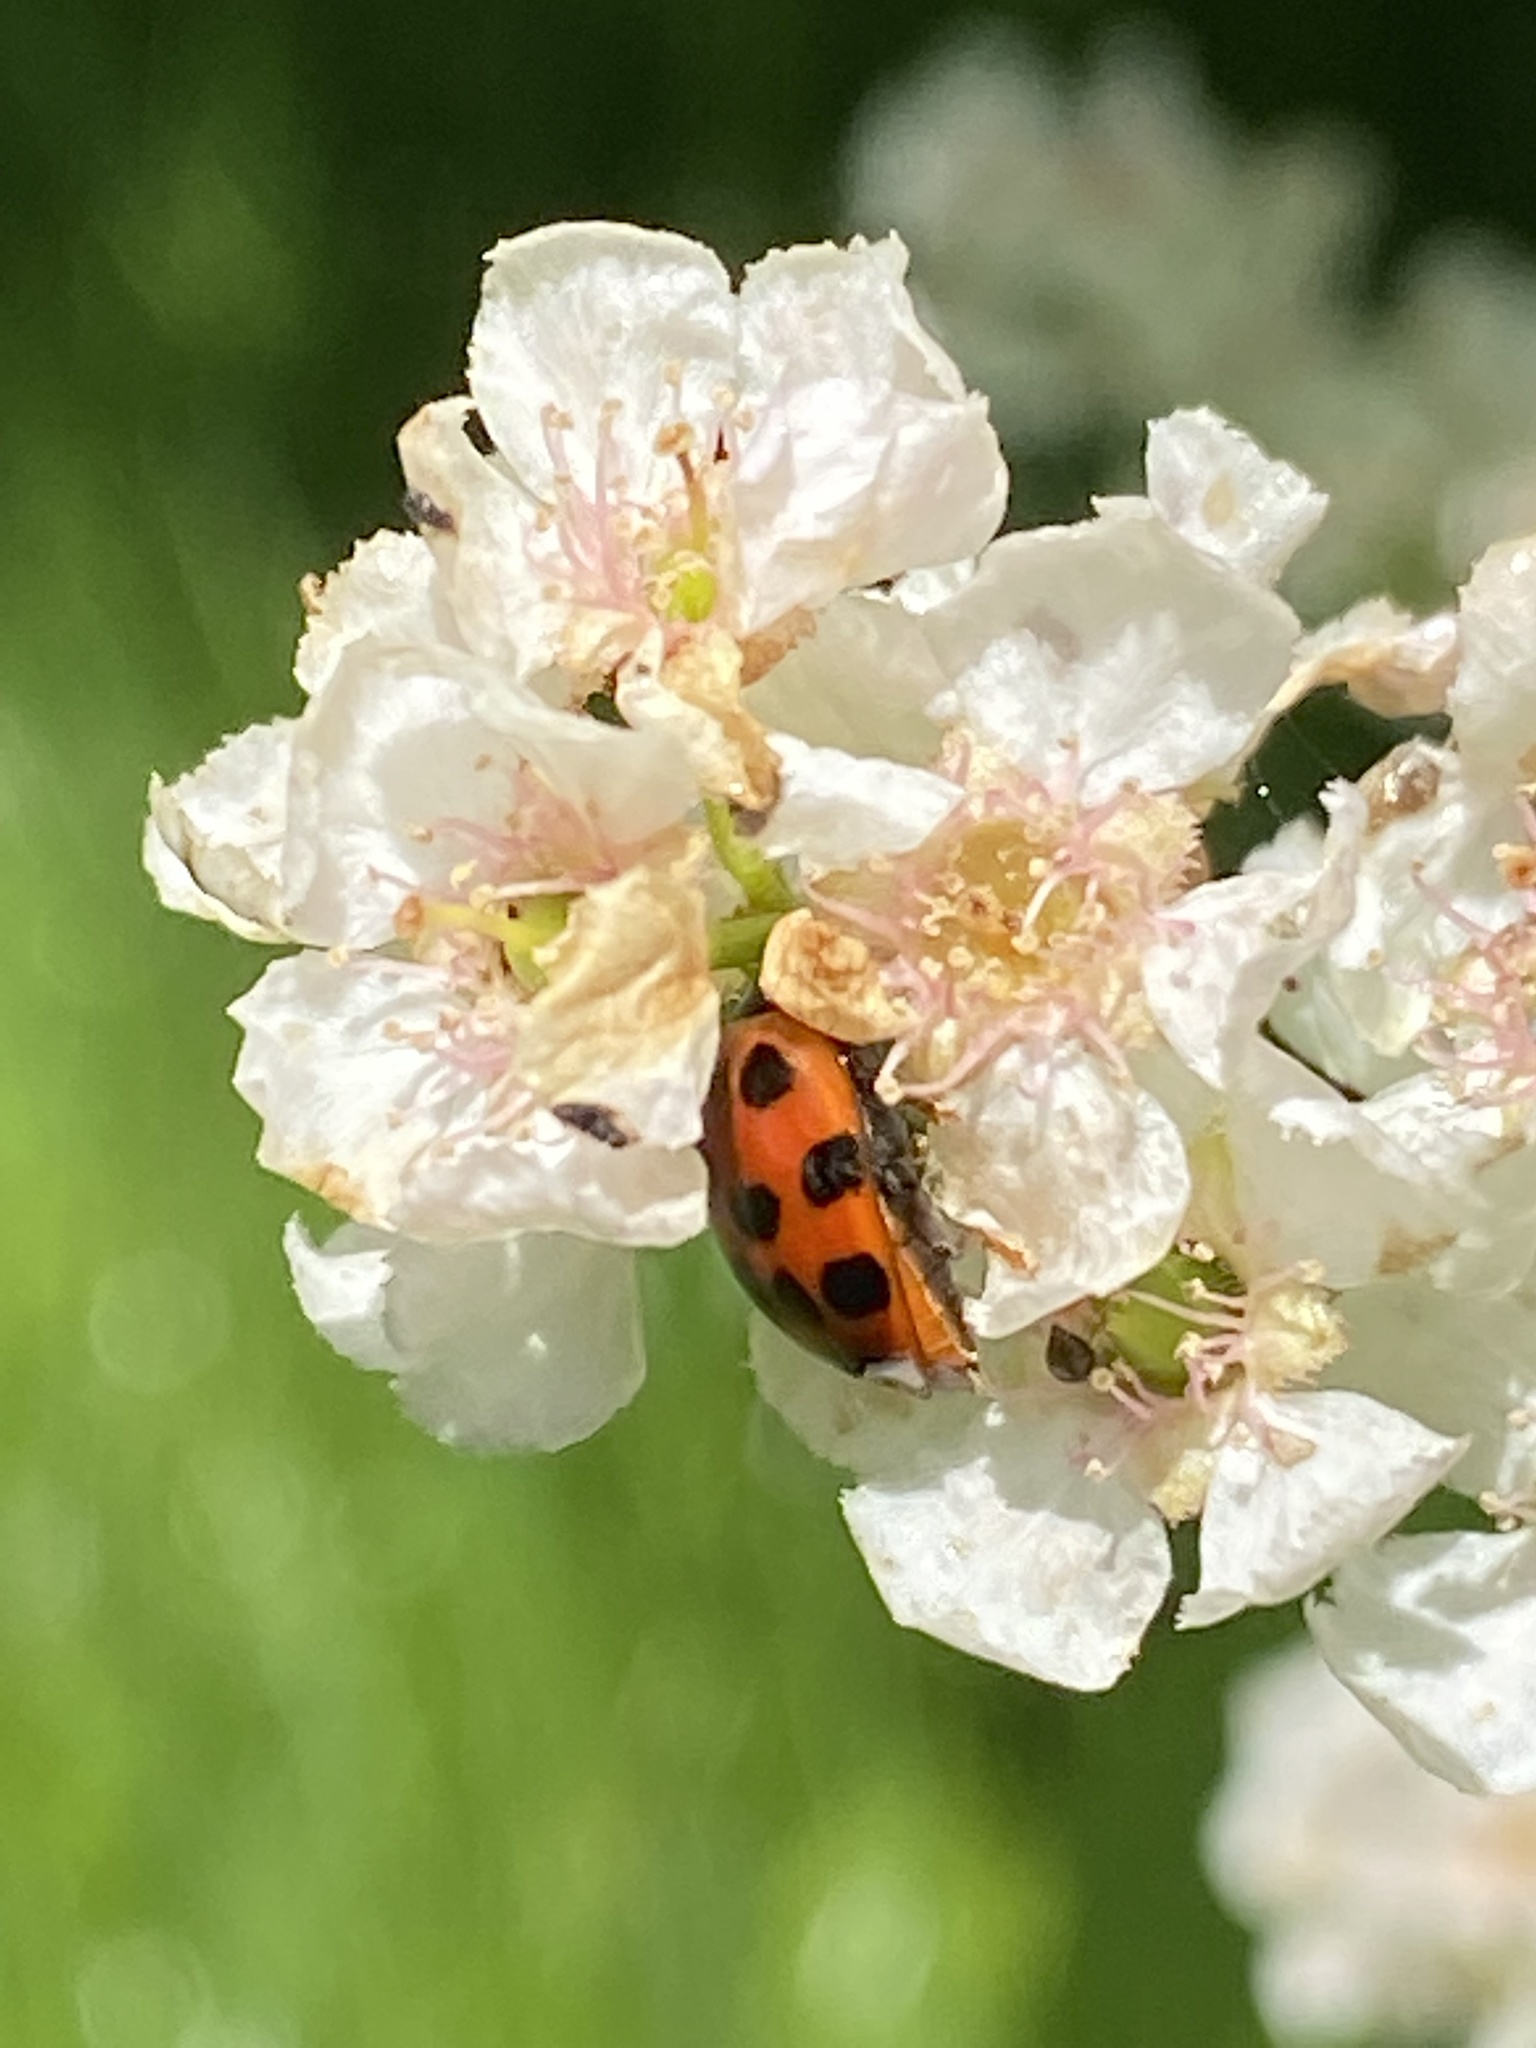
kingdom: Animalia
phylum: Arthropoda
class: Insecta
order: Coleoptera
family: Coccinellidae
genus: Harmonia
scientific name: Harmonia axyridis
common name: Harlequin ladybird
